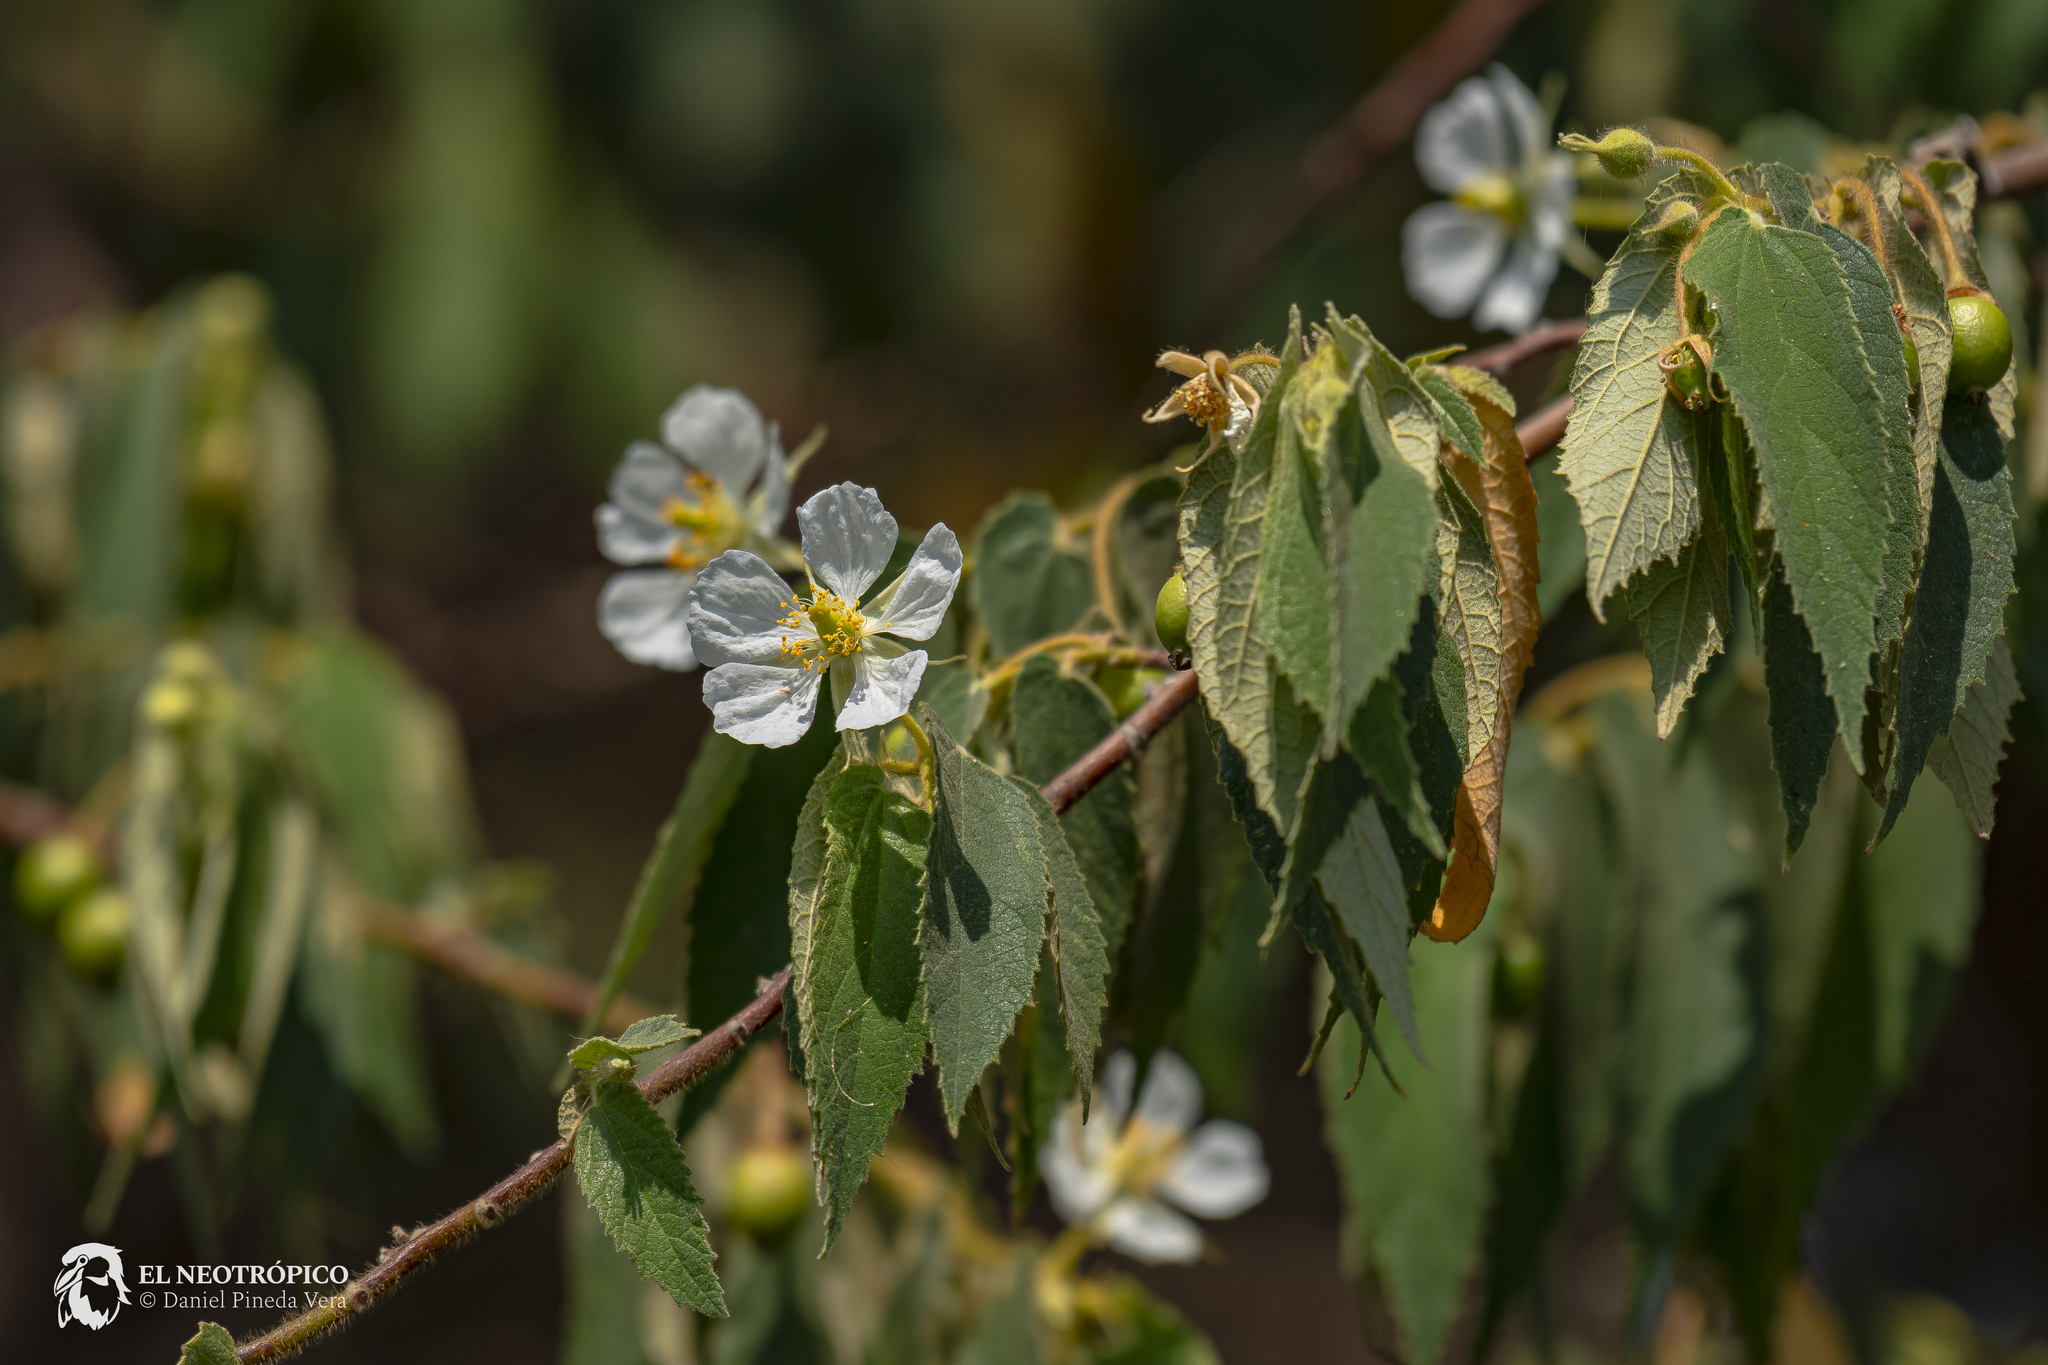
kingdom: Plantae
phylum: Tracheophyta
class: Magnoliopsida
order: Malvales
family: Muntingiaceae
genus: Muntingia
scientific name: Muntingia calabura
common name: Strawberrytree
